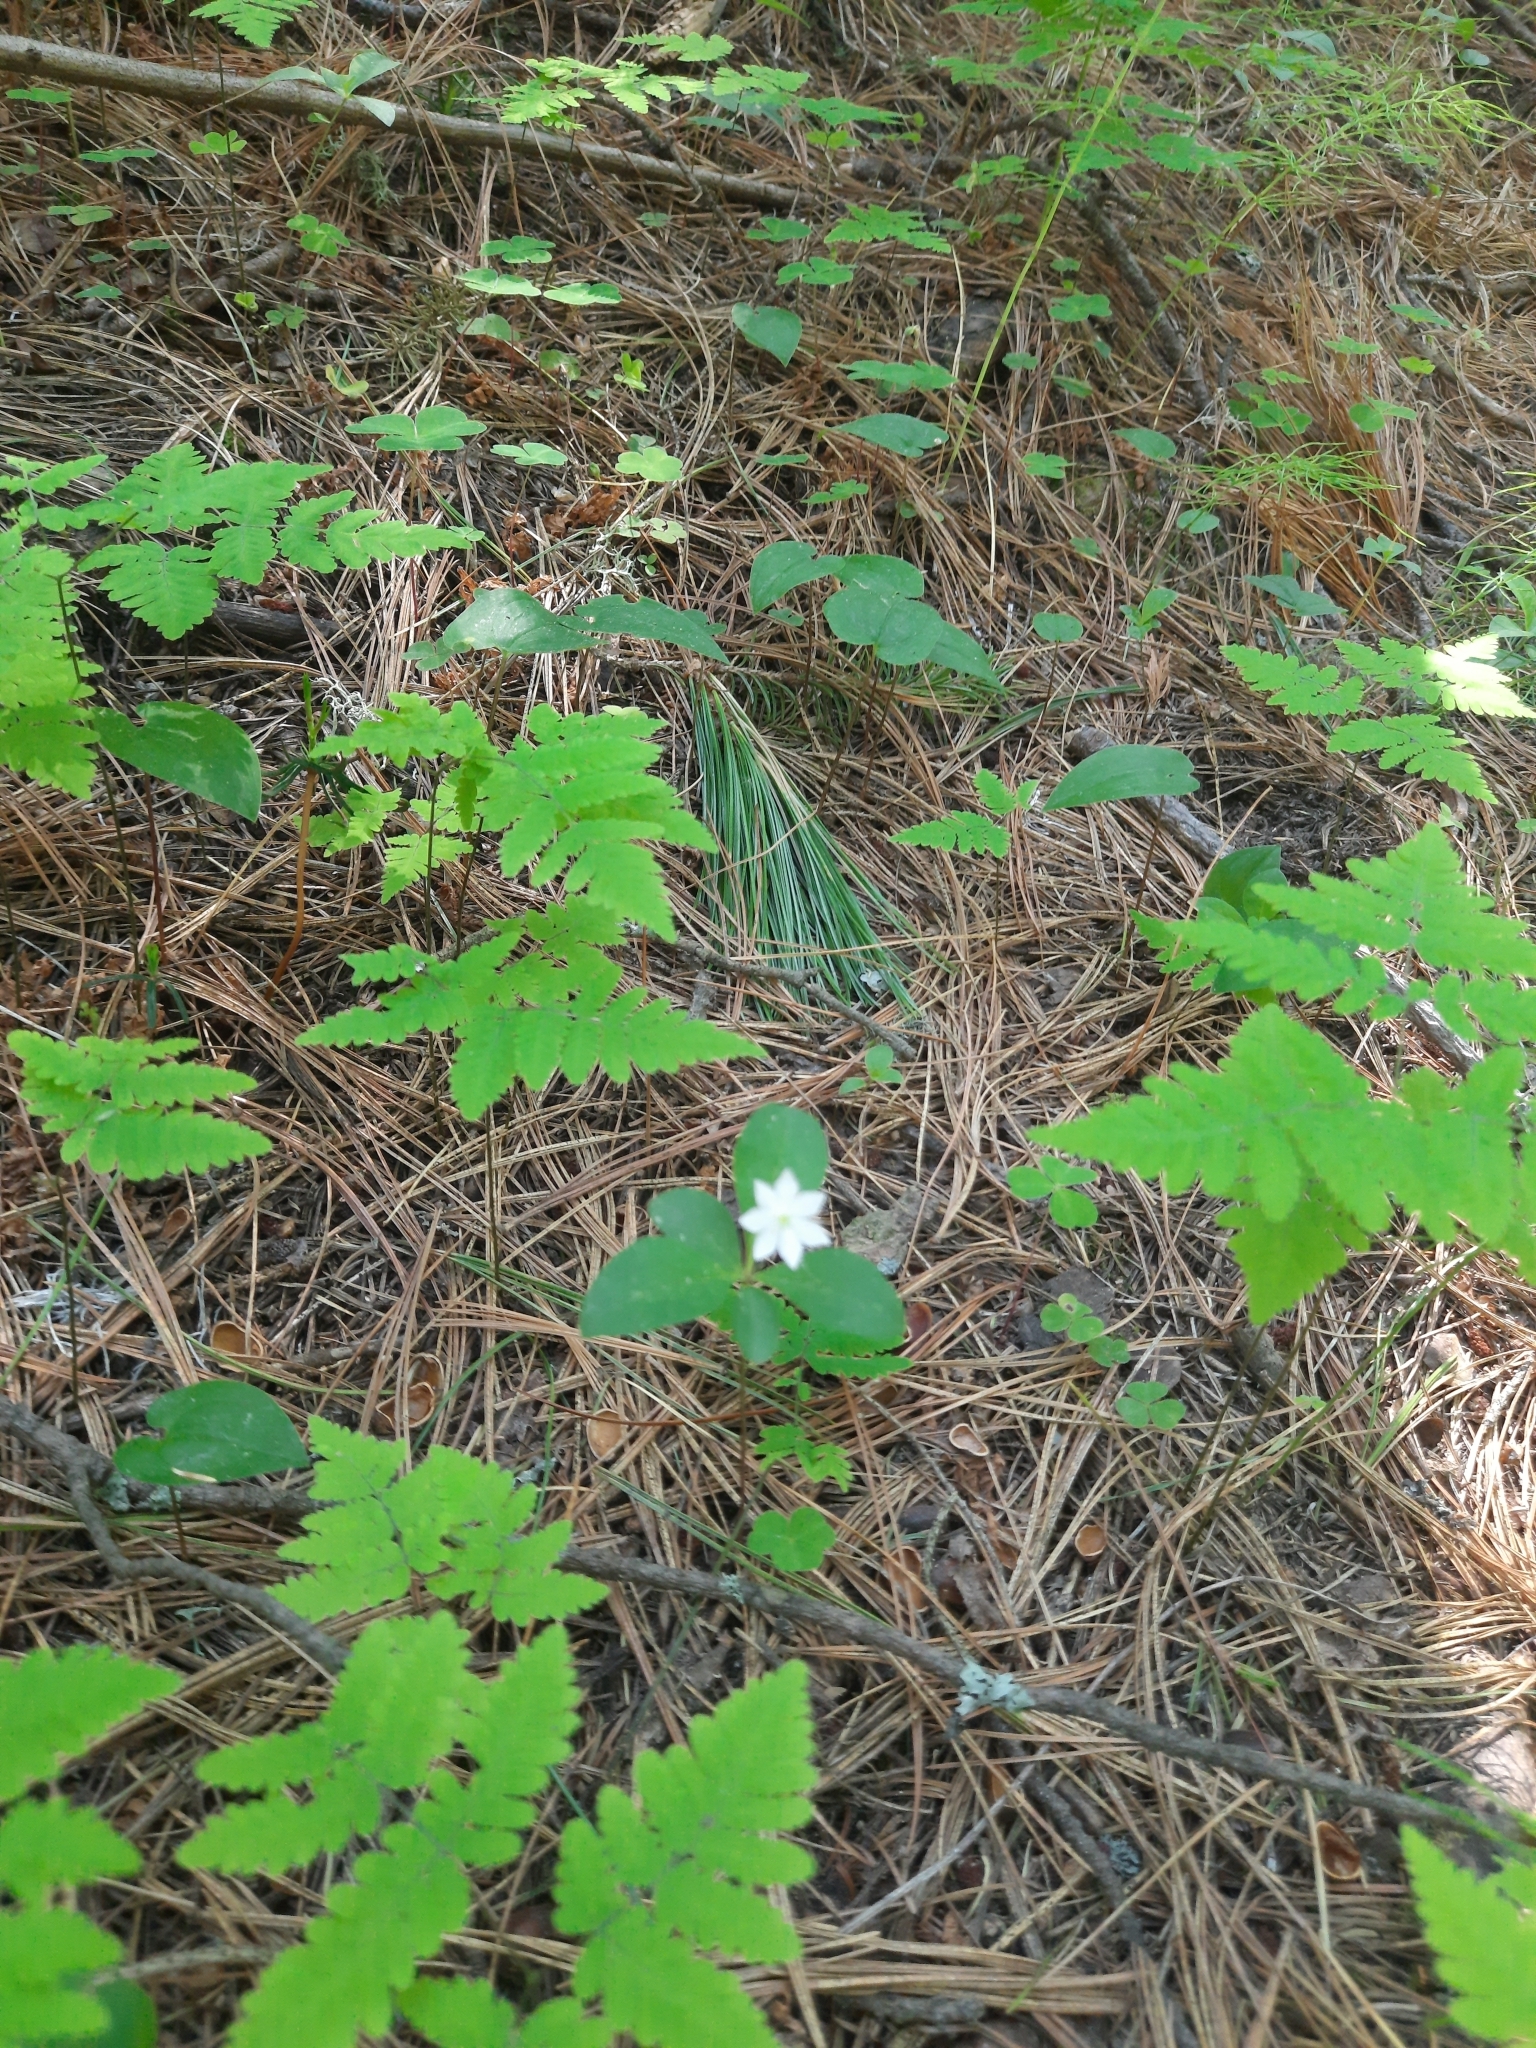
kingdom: Plantae
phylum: Tracheophyta
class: Magnoliopsida
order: Ericales
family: Primulaceae
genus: Lysimachia
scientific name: Lysimachia europaea
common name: Arctic starflower
